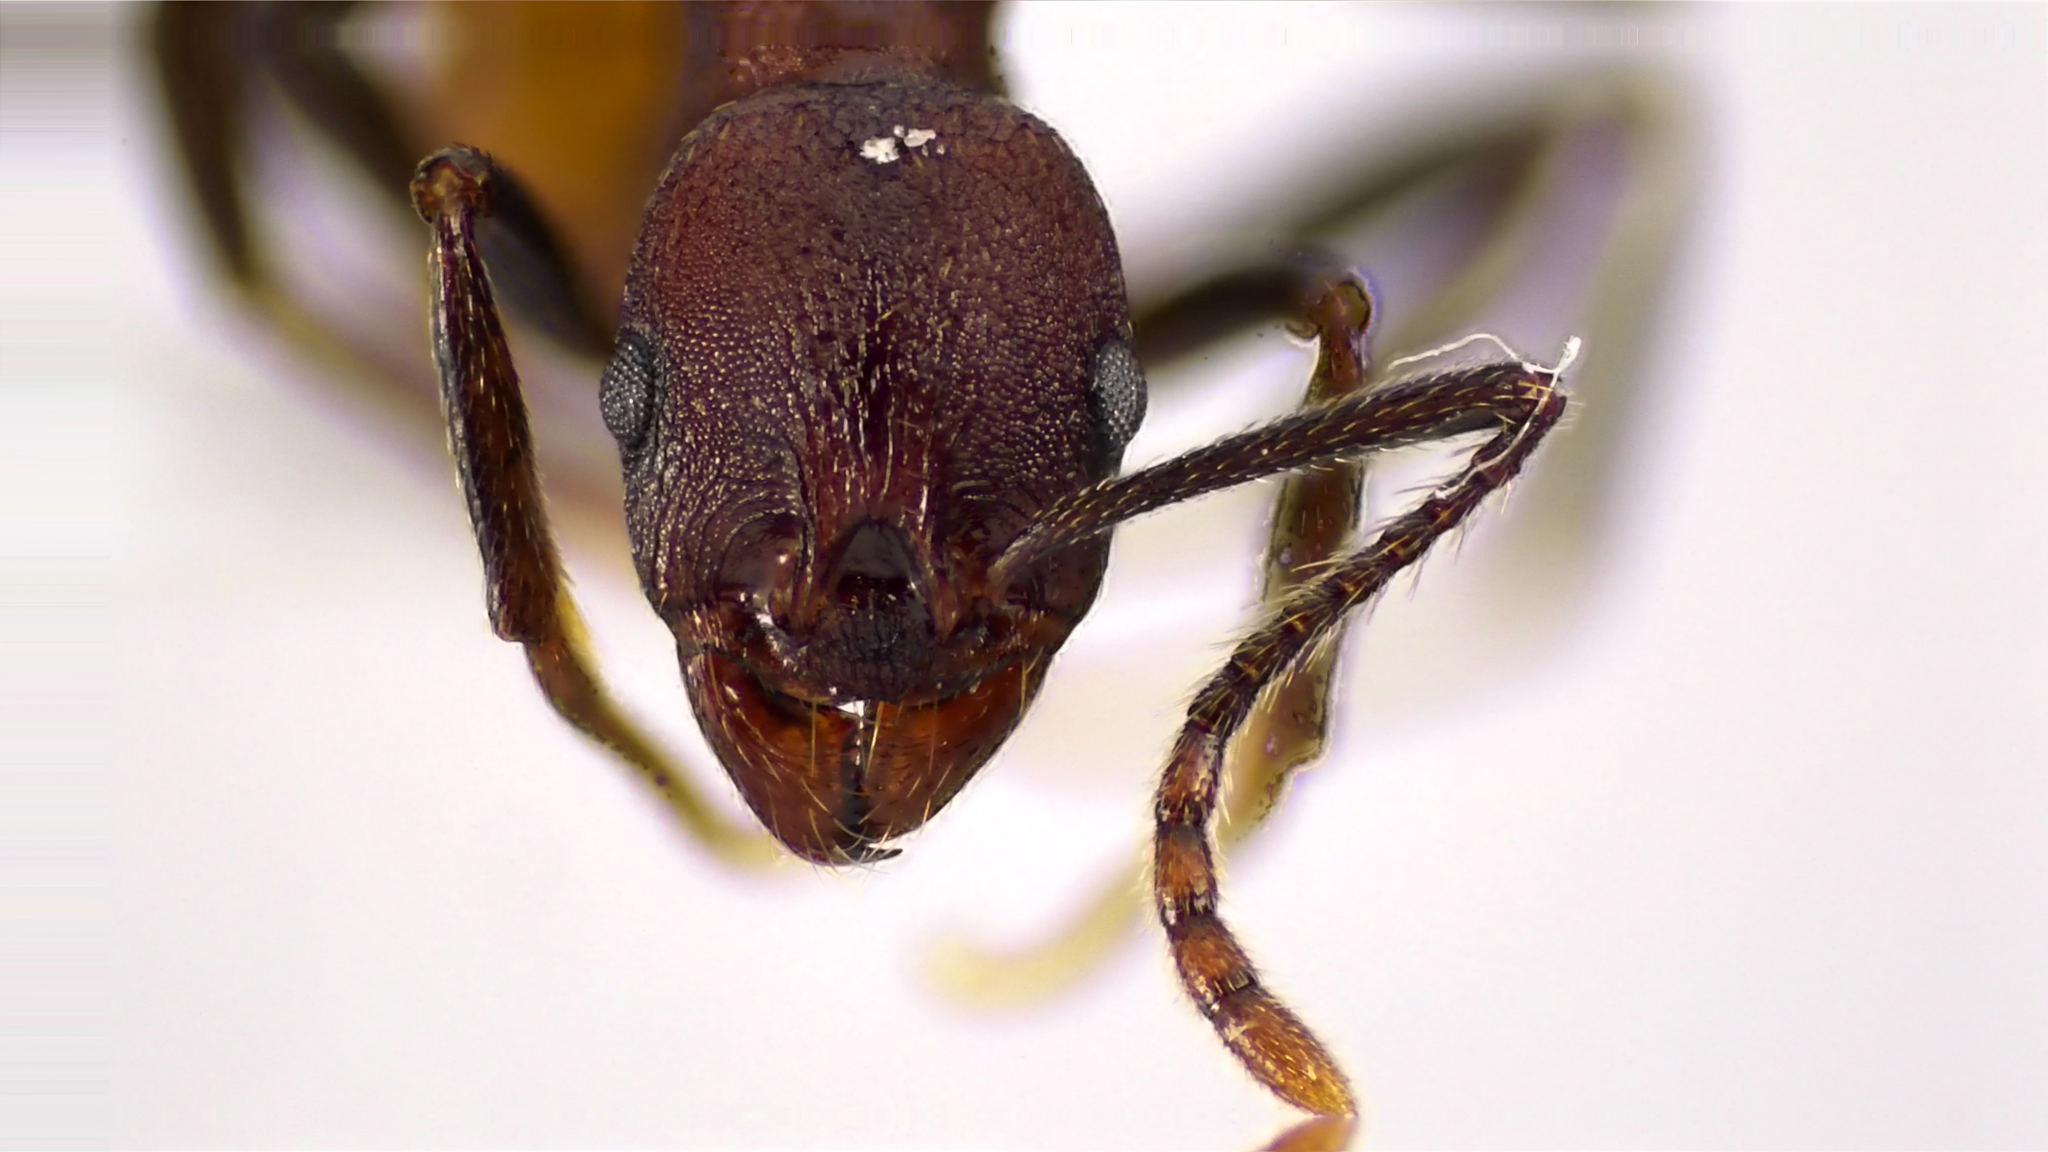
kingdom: Animalia
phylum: Arthropoda
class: Insecta
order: Hymenoptera
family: Formicidae
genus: Aphaenogaster
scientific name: Aphaenogaster tennesseensis
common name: Tennessee thread-waisted ant
